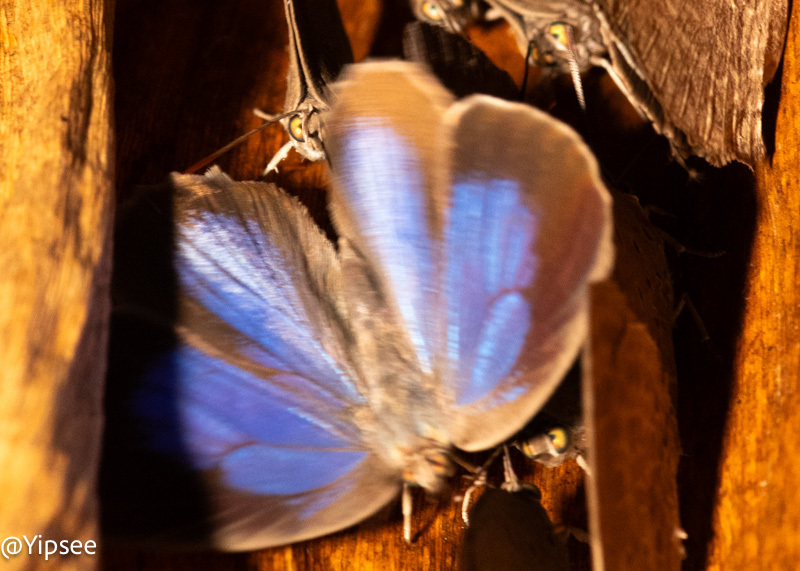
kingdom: Animalia
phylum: Arthropoda
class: Insecta
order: Lepidoptera
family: Lycaenidae
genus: Arhopala
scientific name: Arhopala asopia
